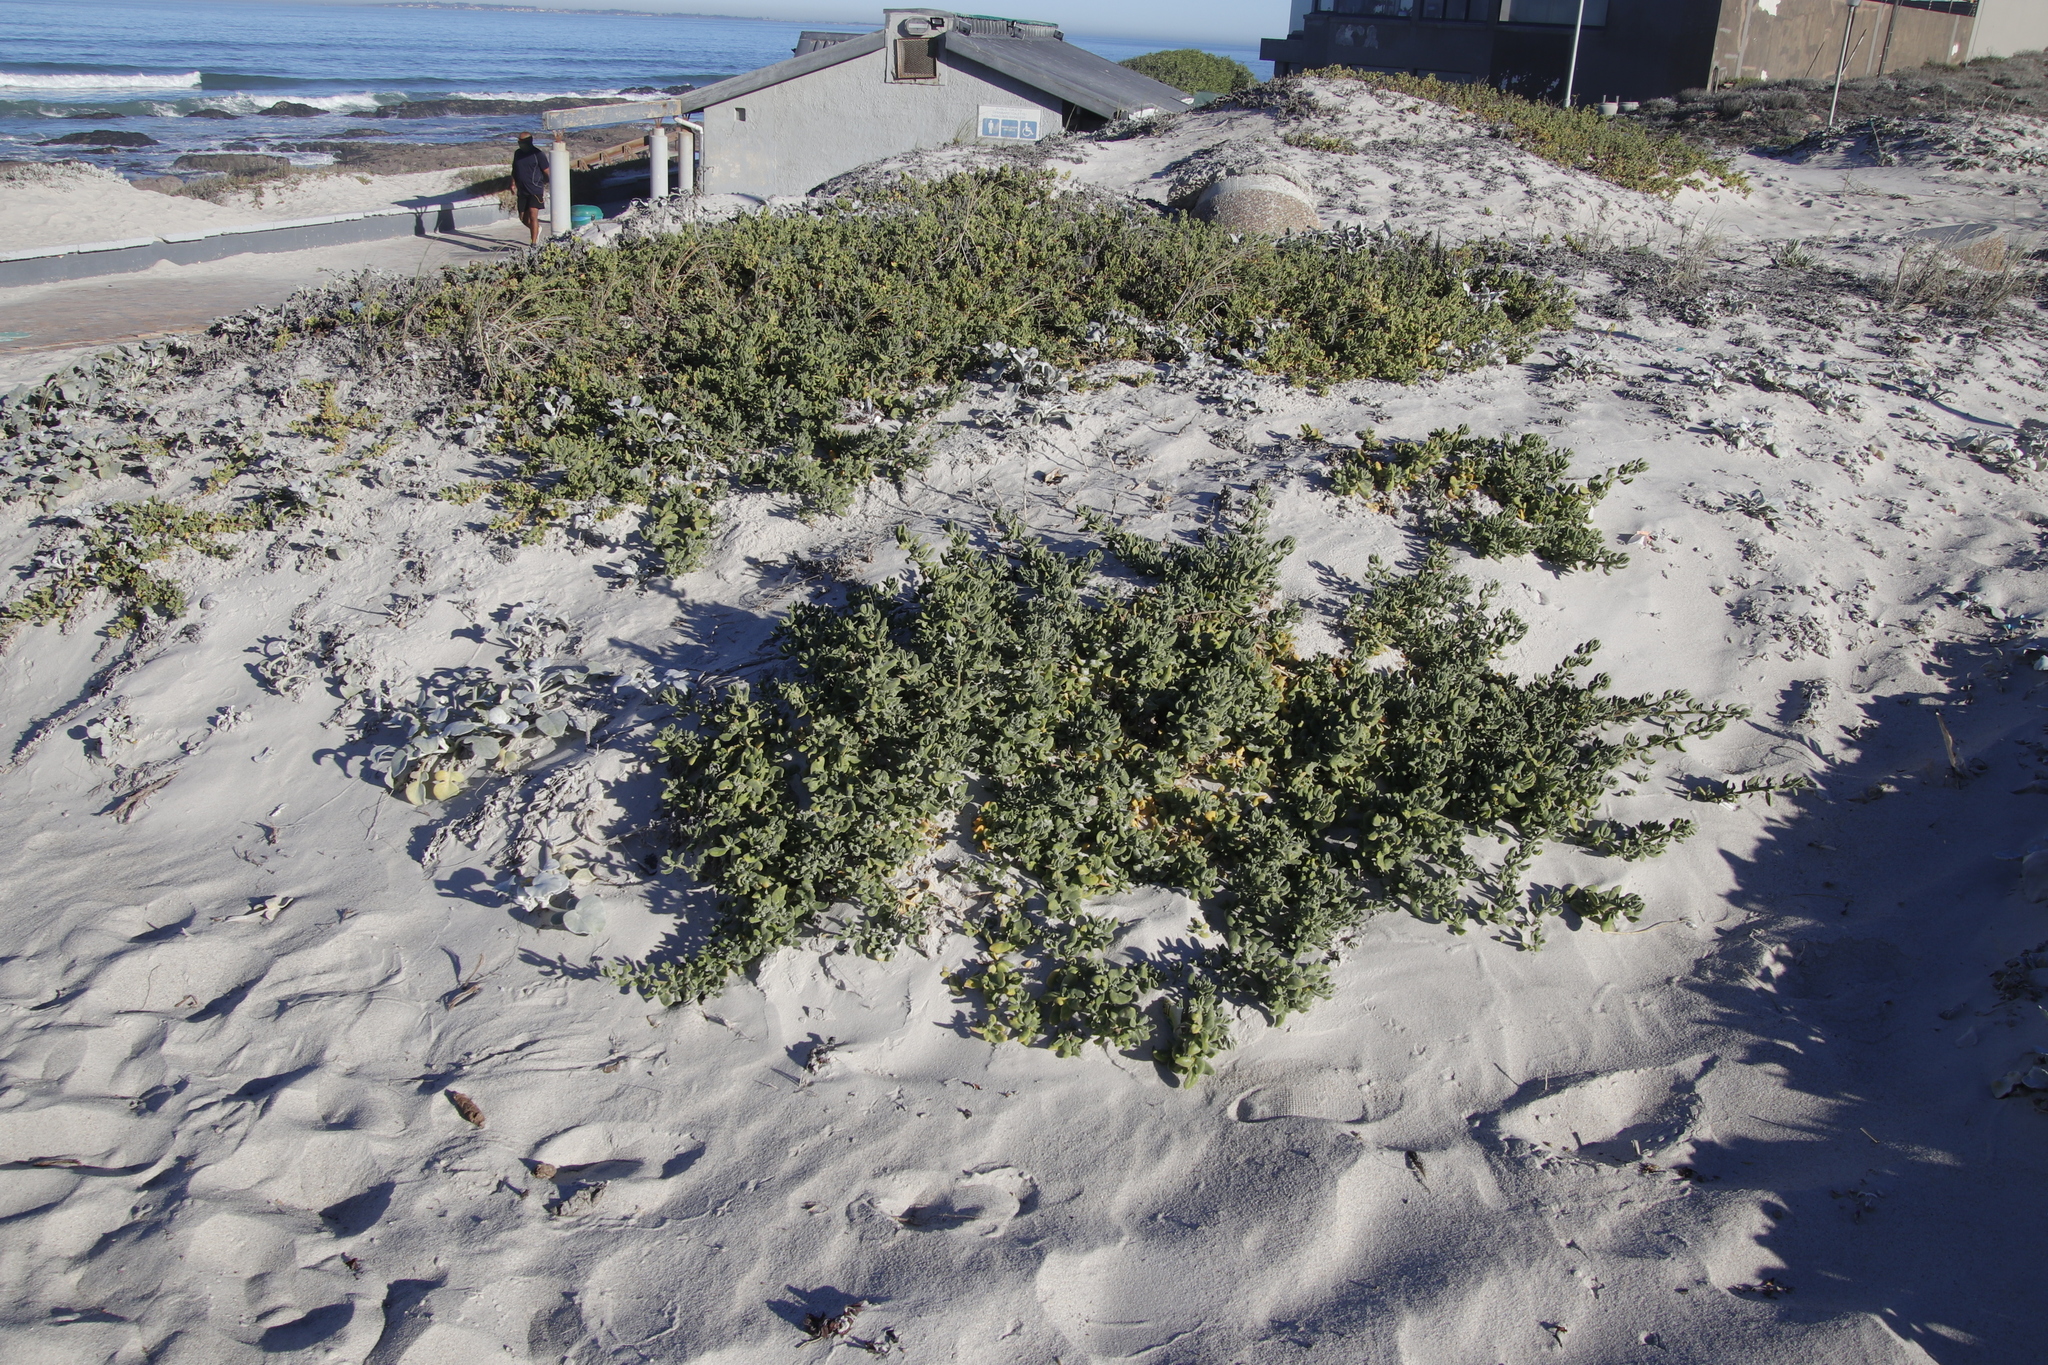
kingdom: Plantae
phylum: Tracheophyta
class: Magnoliopsida
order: Caryophyllales
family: Aizoaceae
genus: Tetragonia
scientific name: Tetragonia decumbens
